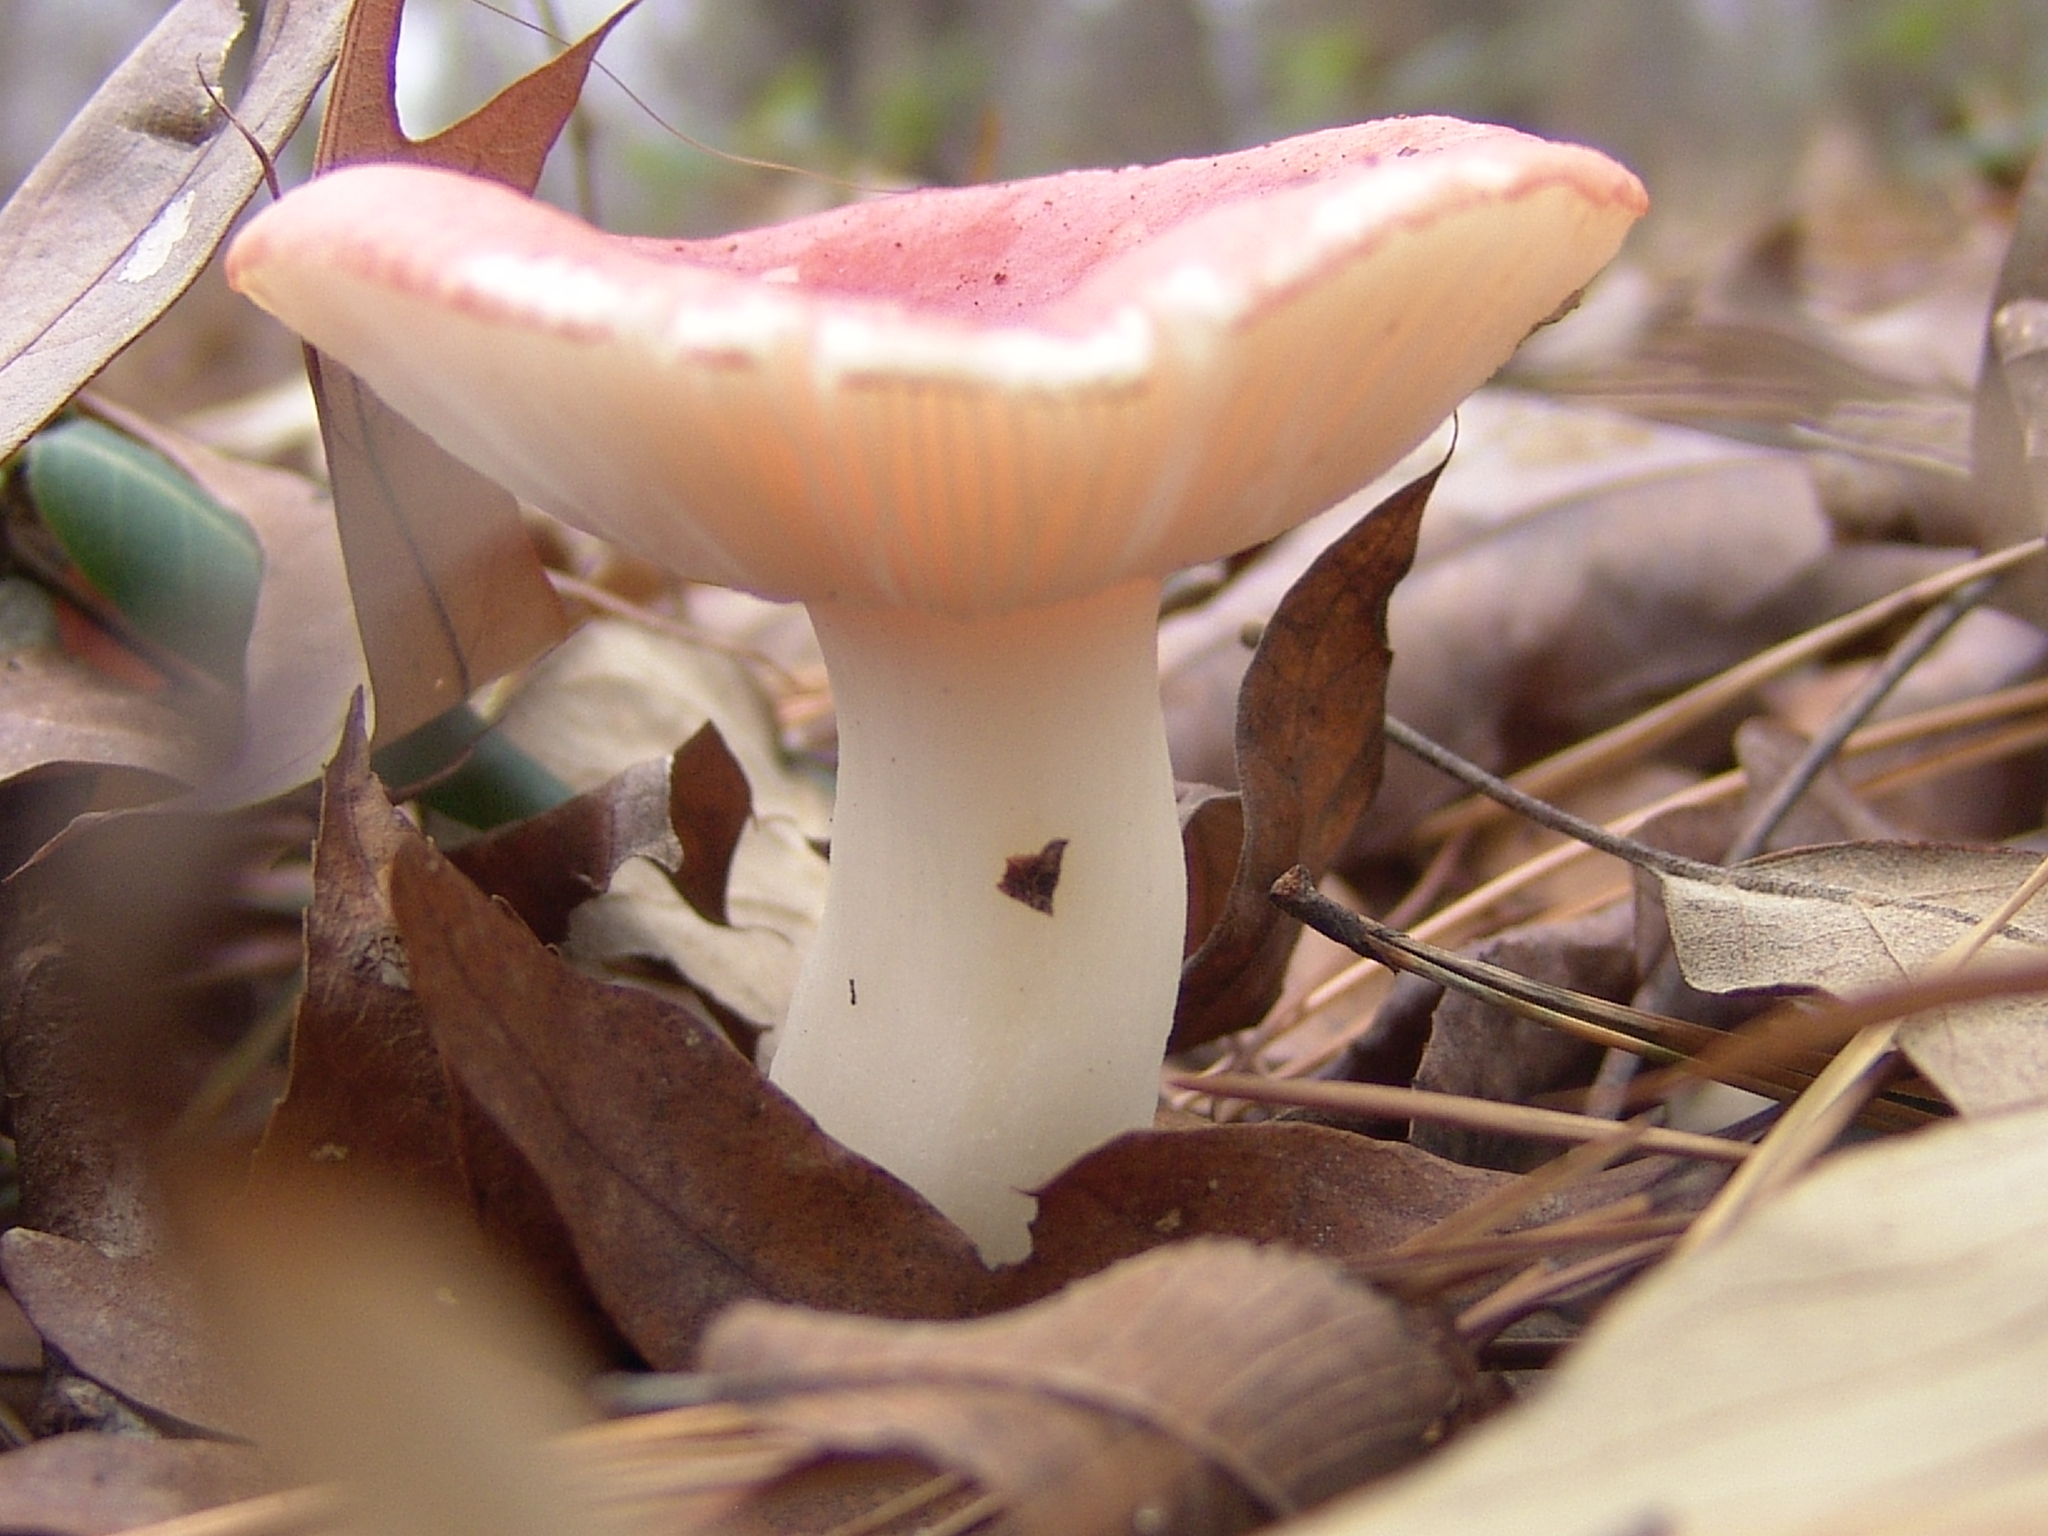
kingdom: Fungi
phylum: Basidiomycota
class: Agaricomycetes
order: Russulales
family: Russulaceae
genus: Russula
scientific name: Russula
